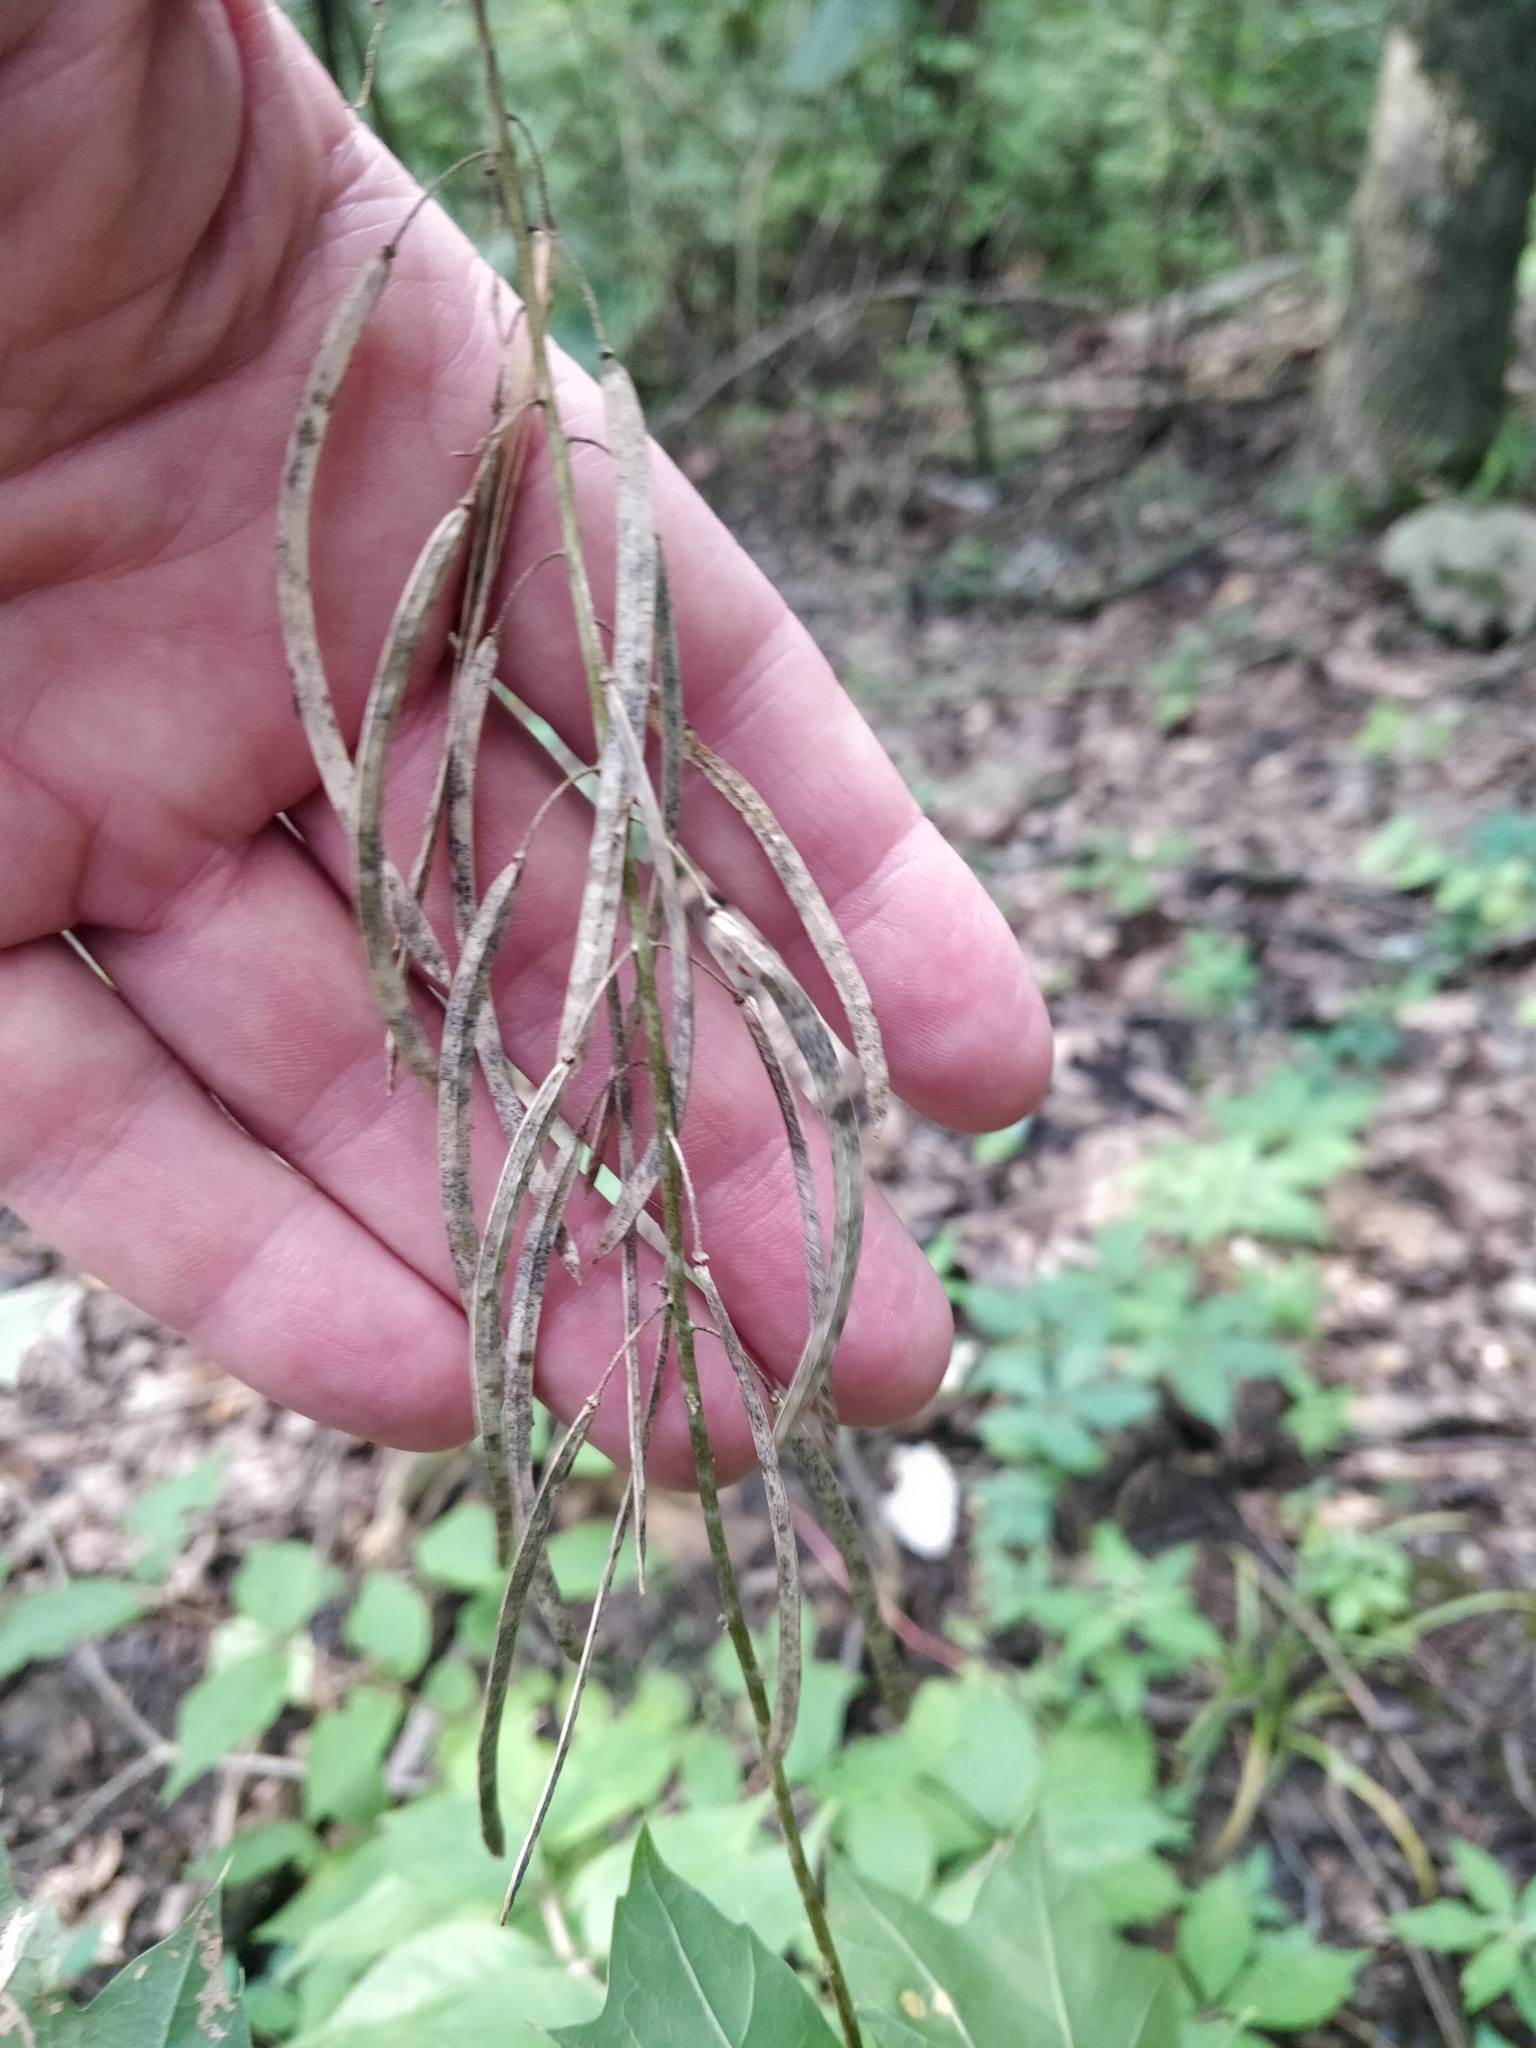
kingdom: Plantae
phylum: Tracheophyta
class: Magnoliopsida
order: Brassicales
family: Brassicaceae
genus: Borodinia
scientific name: Borodinia canadensis
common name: Sicklepod
